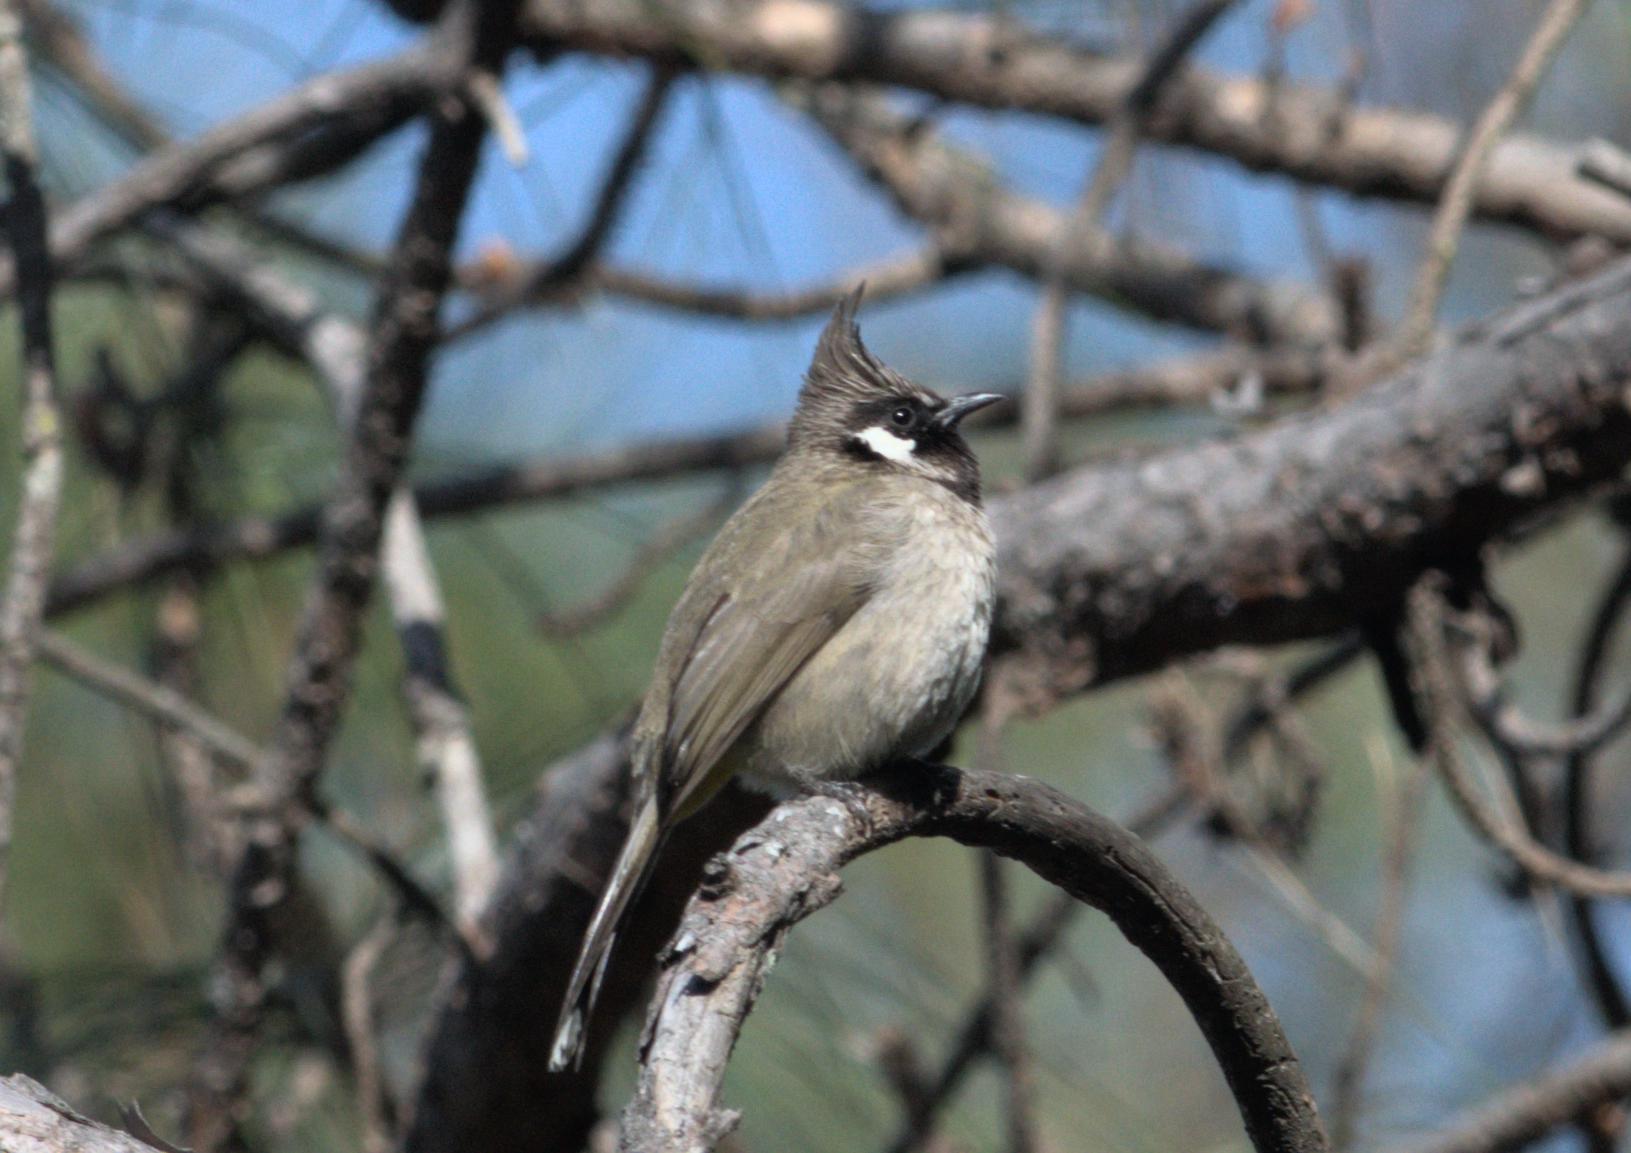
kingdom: Animalia
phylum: Chordata
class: Aves
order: Passeriformes
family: Pycnonotidae
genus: Pycnonotus
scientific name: Pycnonotus leucogenys
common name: Himalayan bulbul
